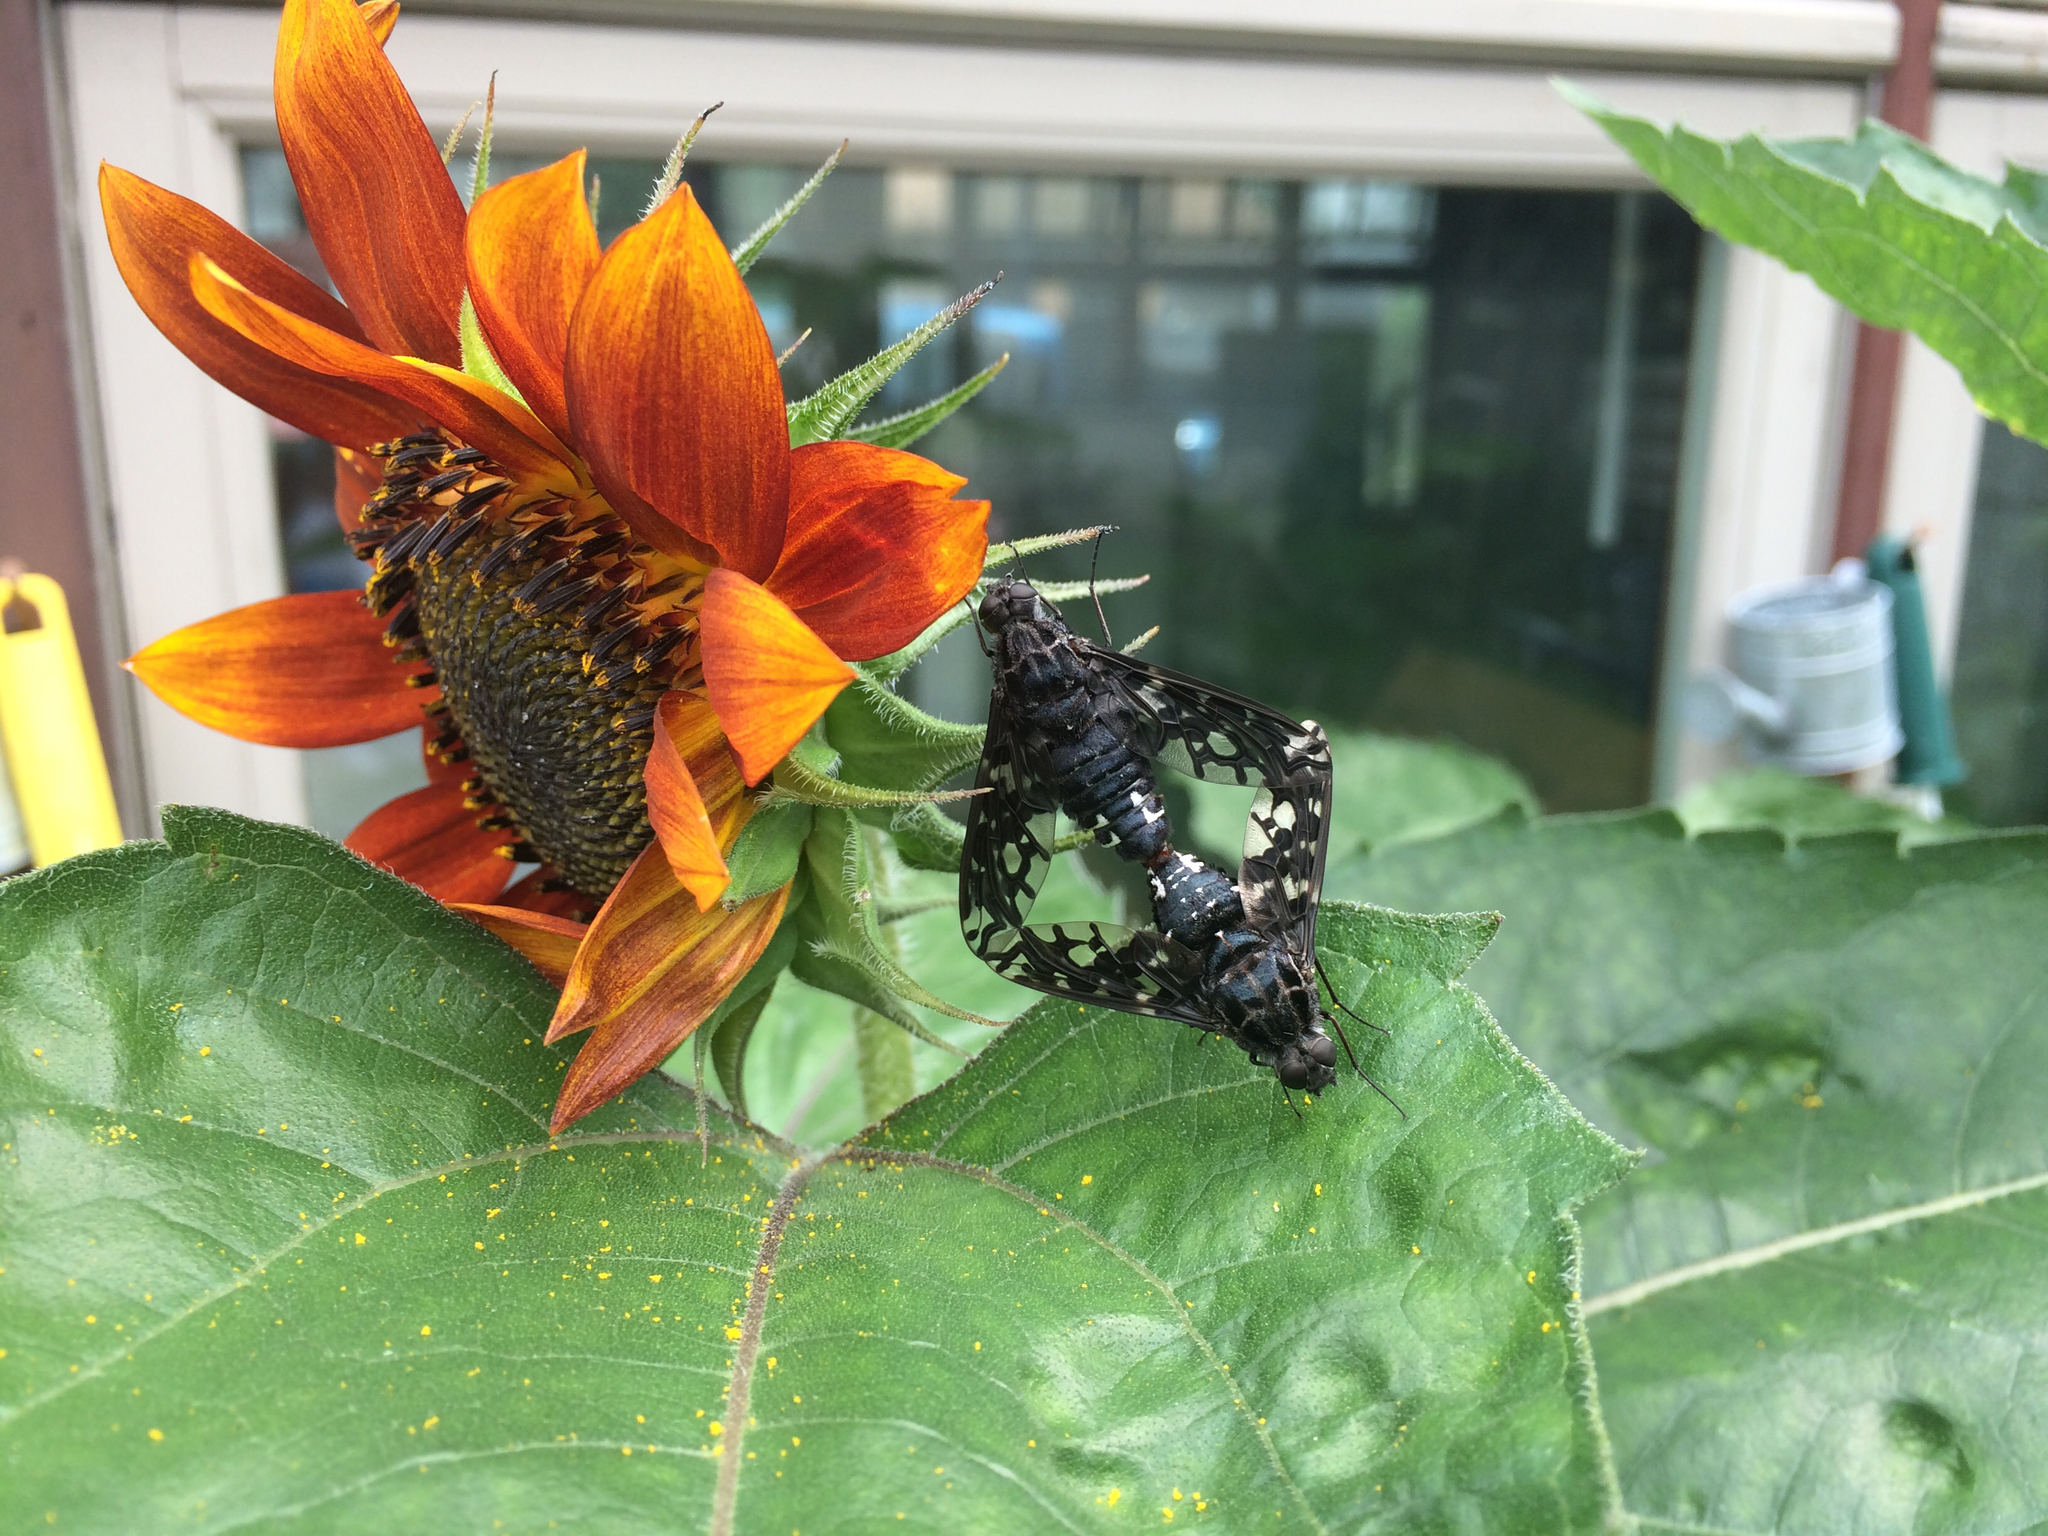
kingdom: Animalia
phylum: Arthropoda
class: Insecta
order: Diptera
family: Bombyliidae
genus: Xenox
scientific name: Xenox tigrinus
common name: Tiger bee fly
